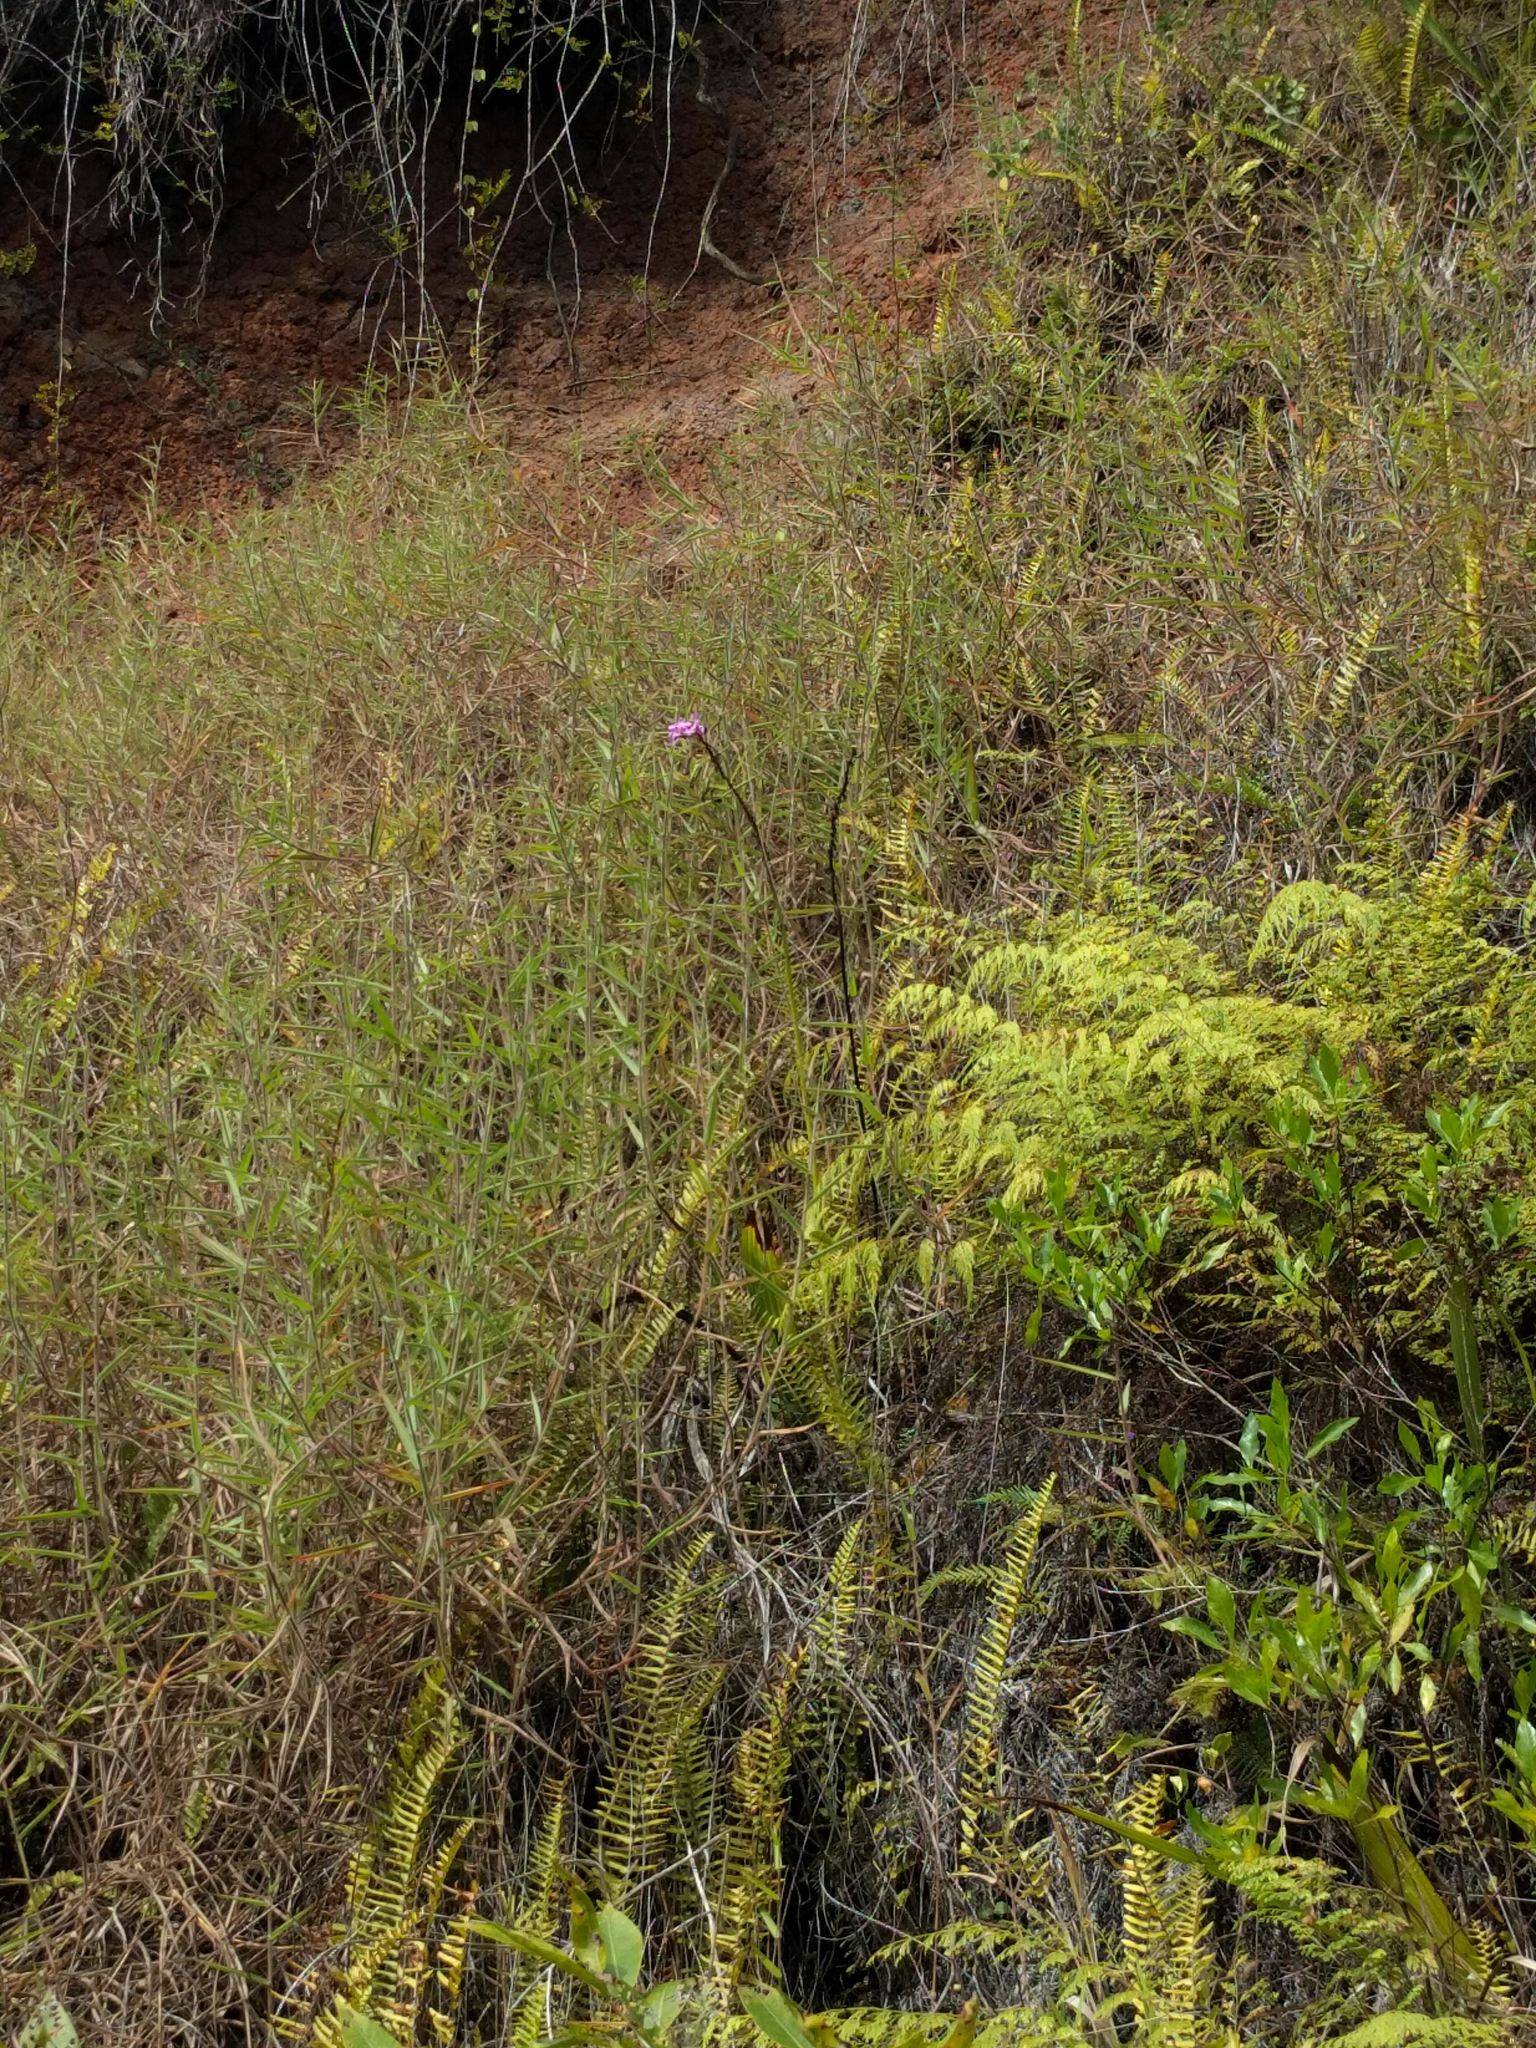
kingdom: Plantae
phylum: Tracheophyta
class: Liliopsida
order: Asparagales
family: Orchidaceae
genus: Spathoglottis
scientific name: Spathoglottis plicata
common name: Philippine ground orchid
